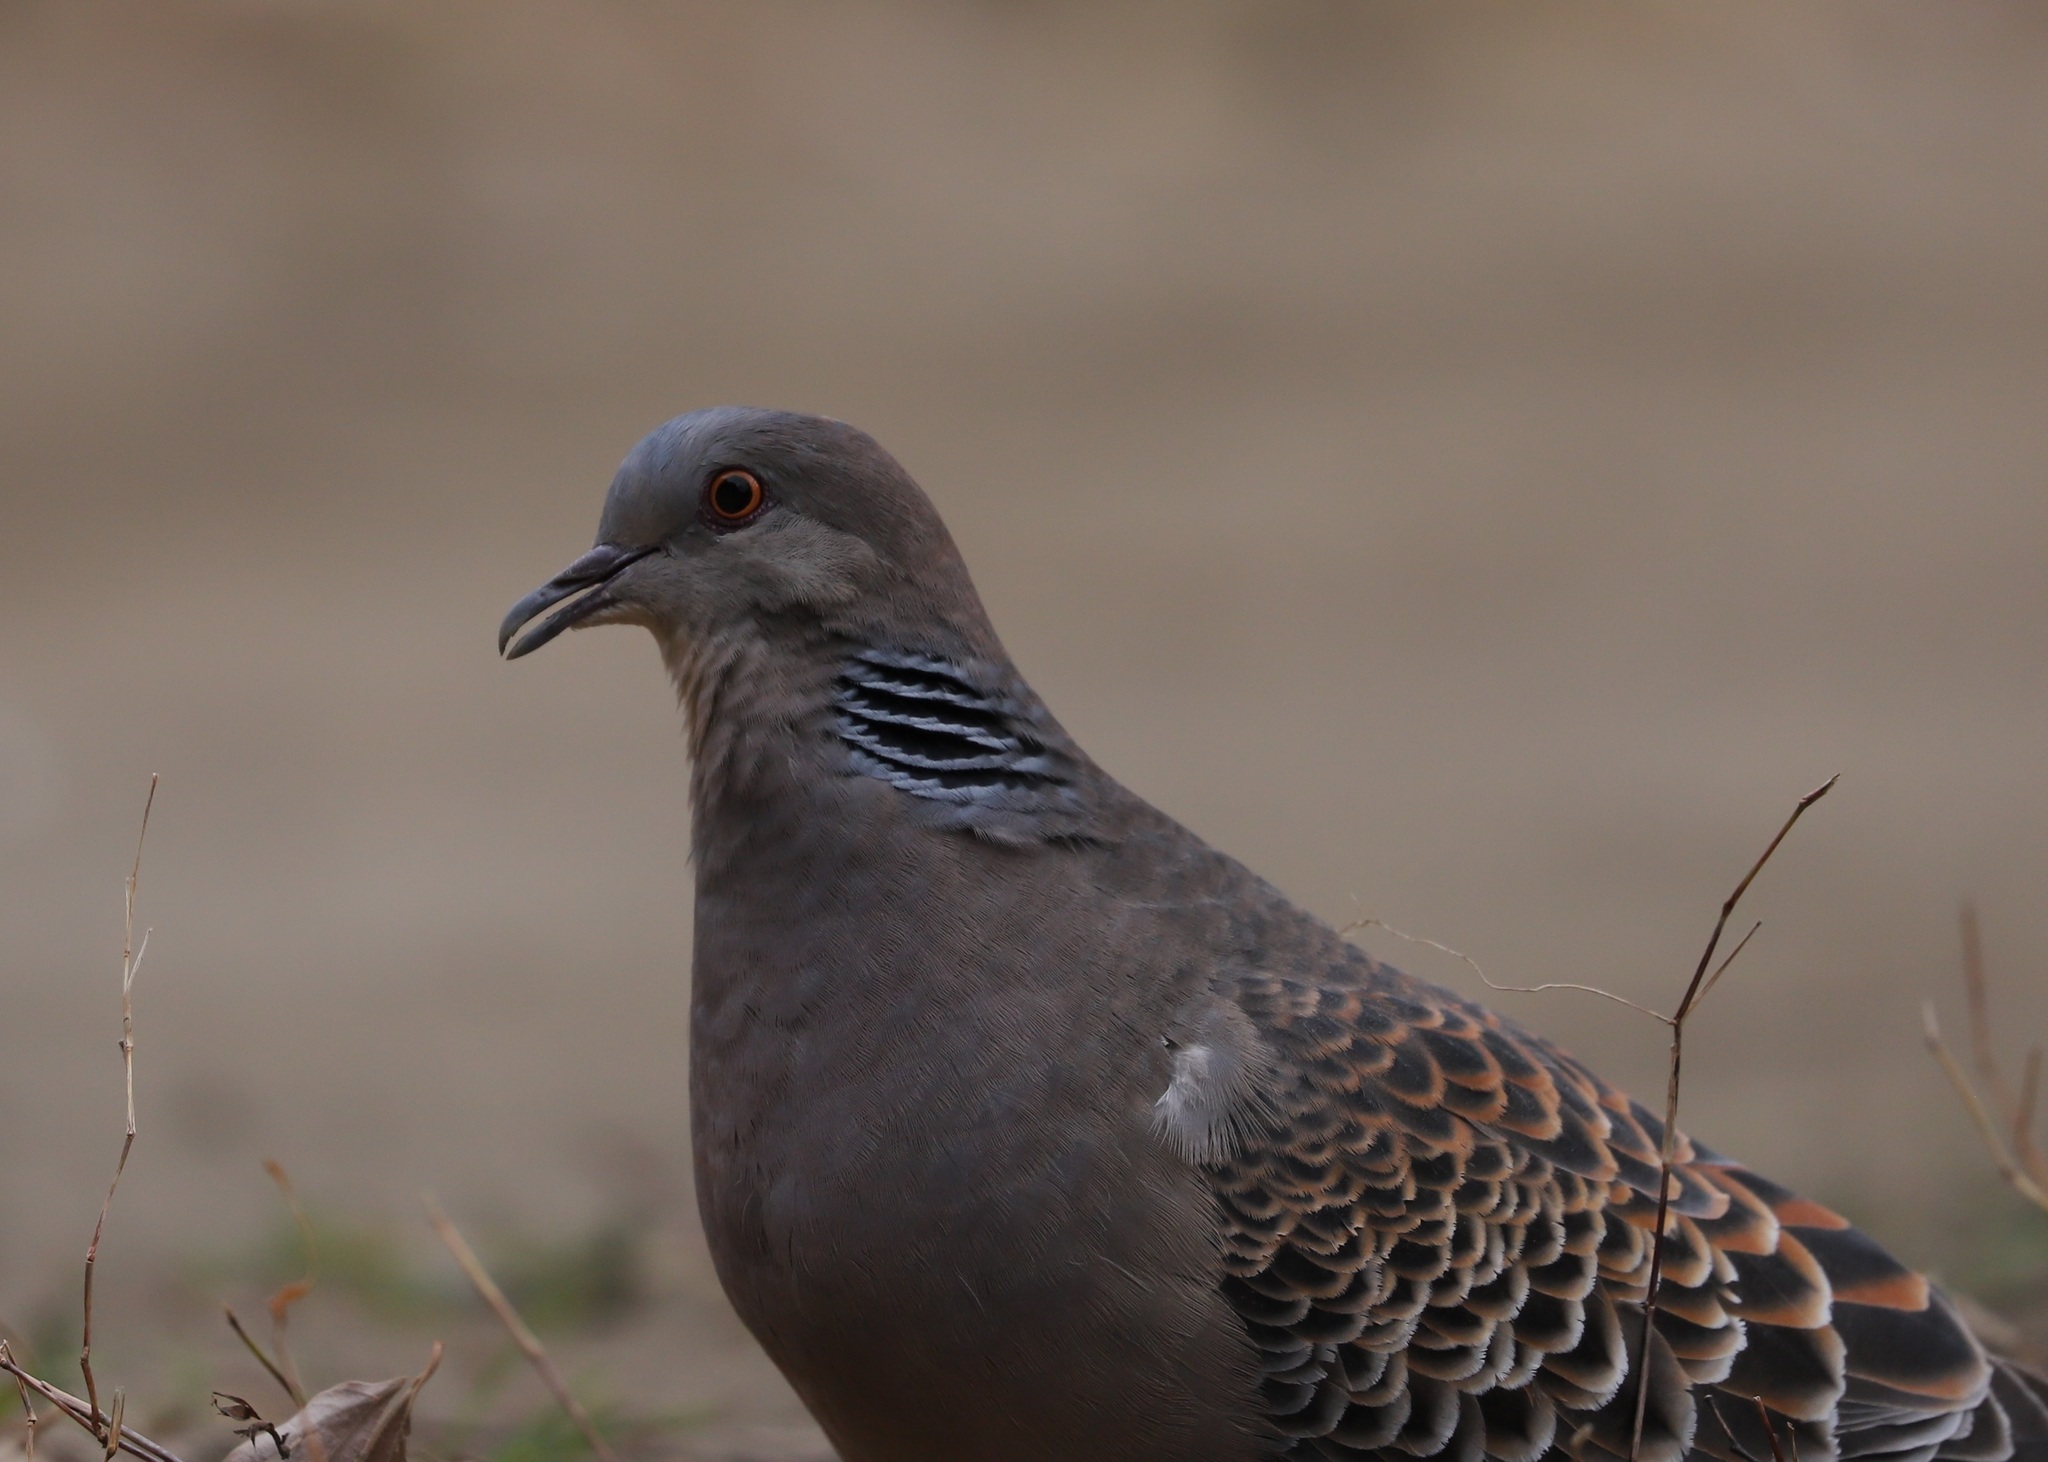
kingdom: Animalia
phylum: Chordata
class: Aves
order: Columbiformes
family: Columbidae
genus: Streptopelia
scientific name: Streptopelia orientalis
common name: Oriental turtle dove
